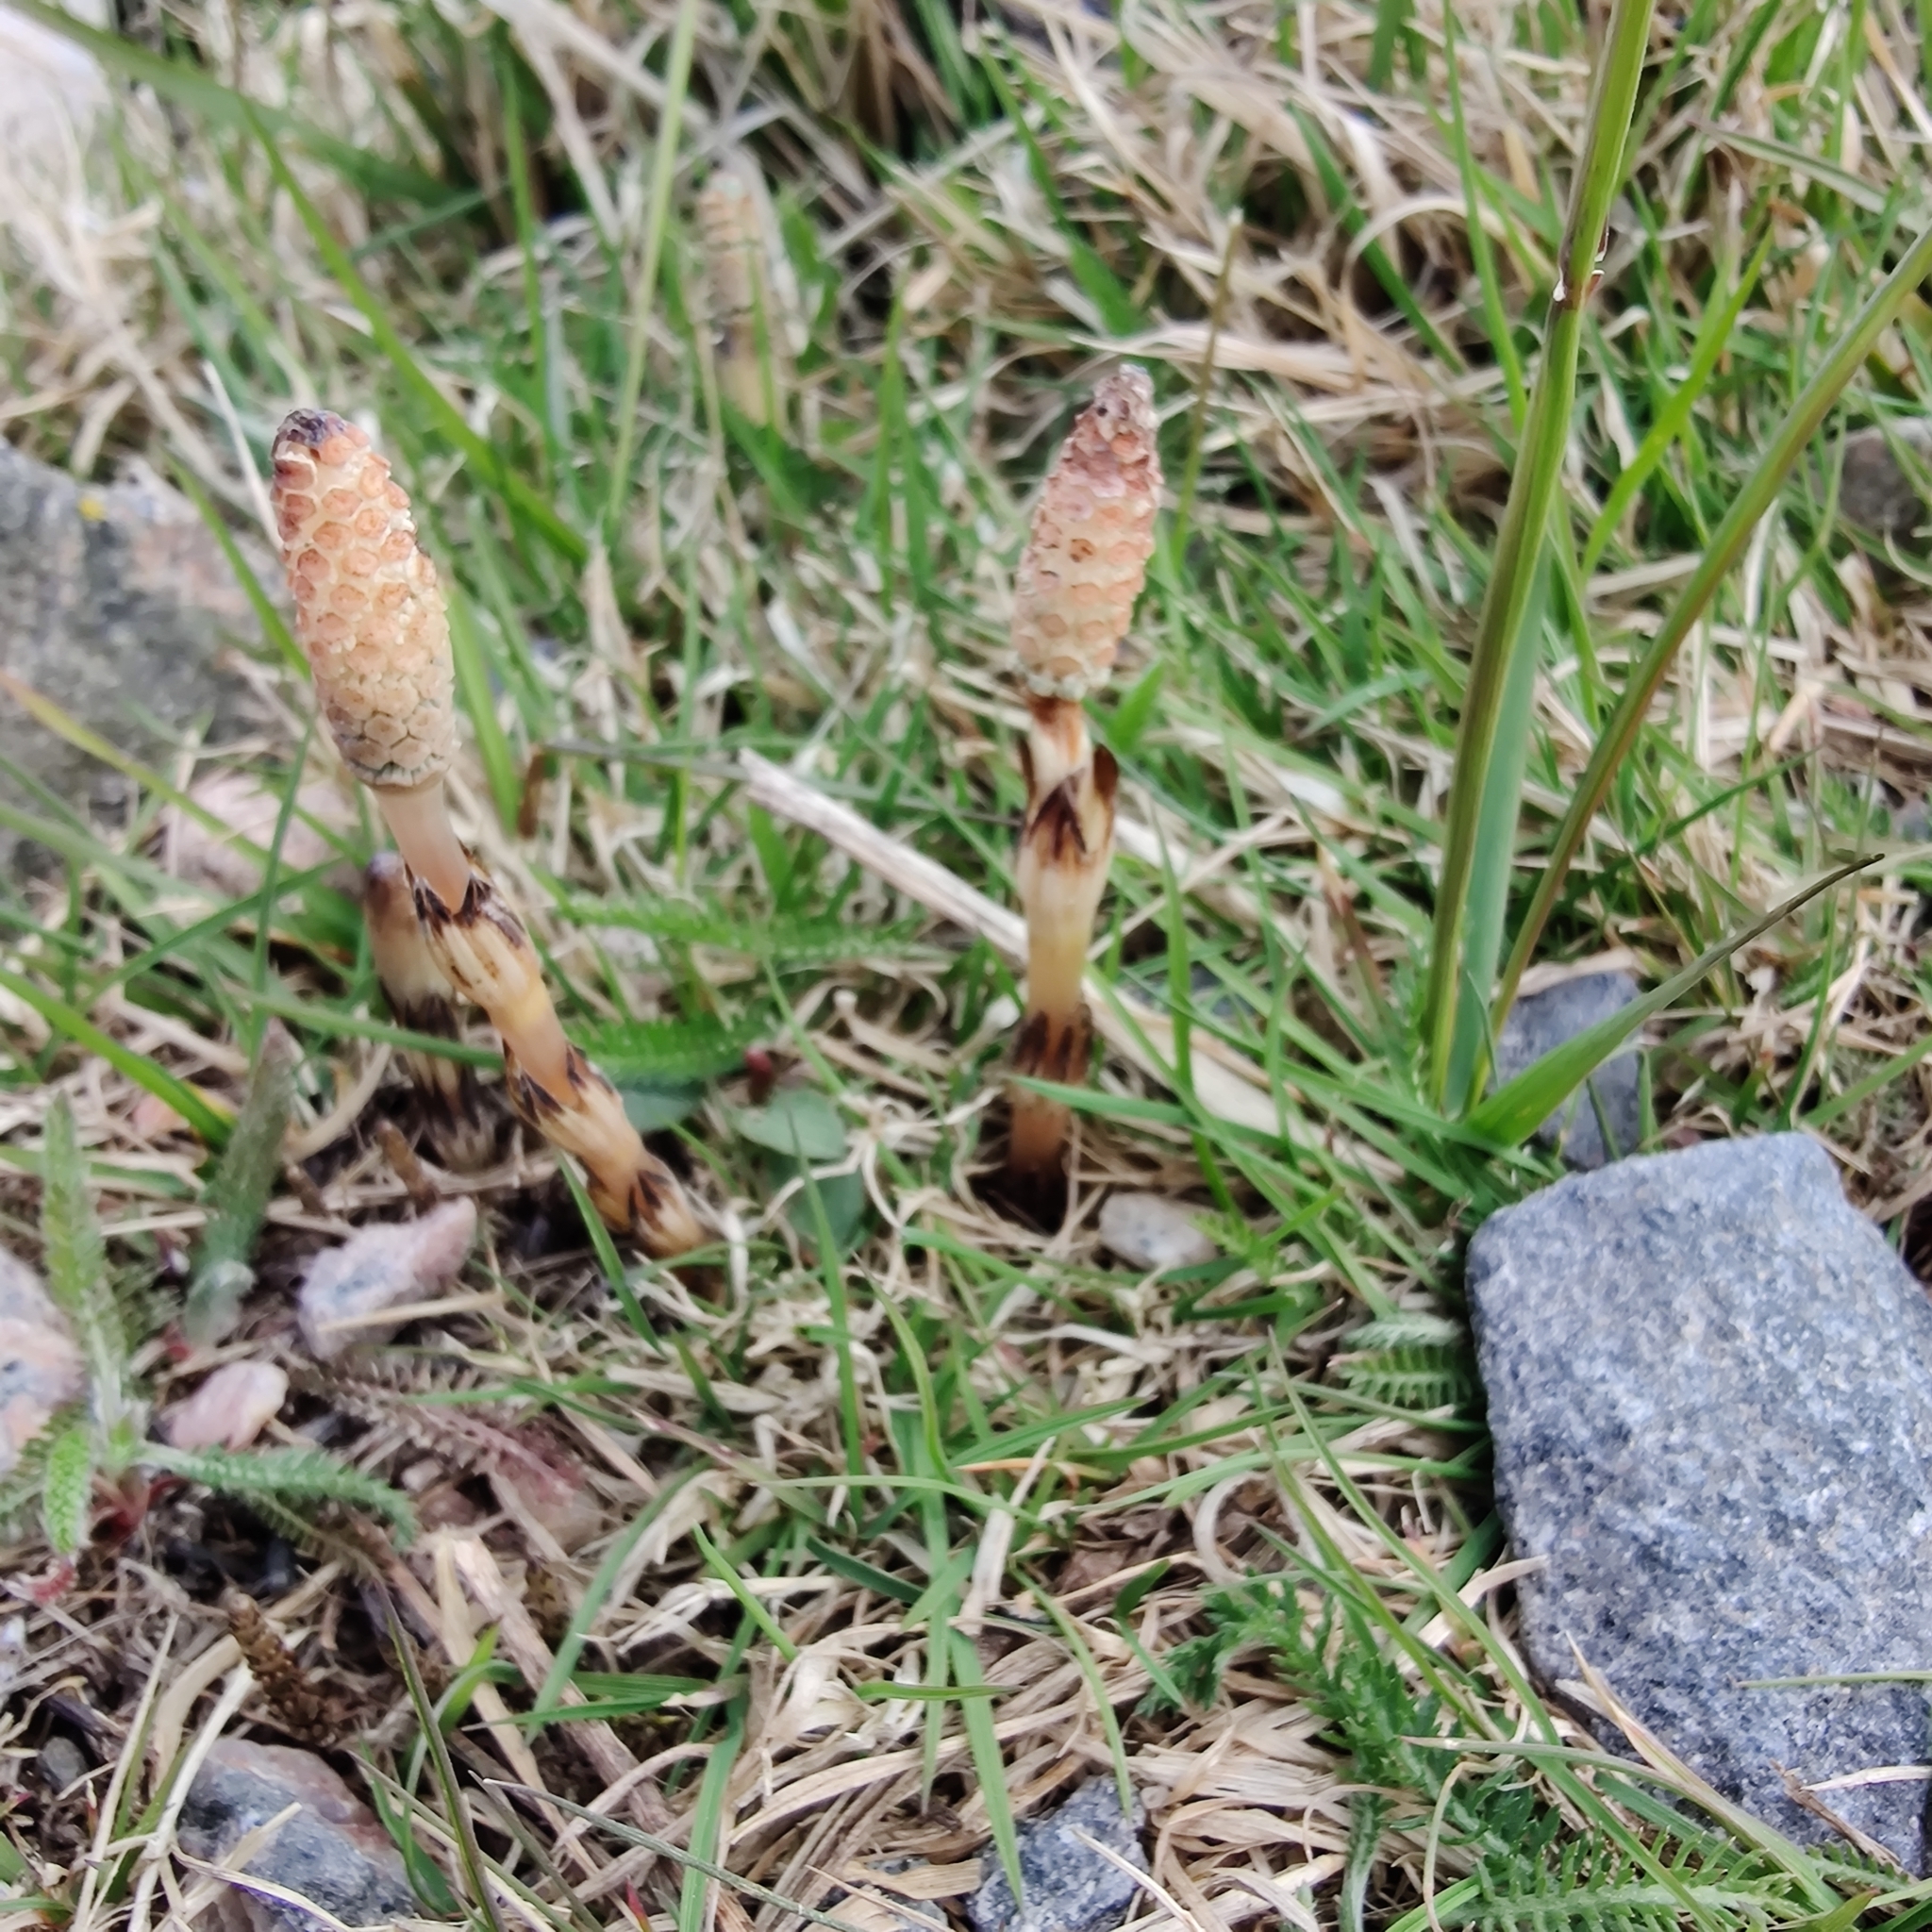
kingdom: Plantae
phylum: Tracheophyta
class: Polypodiopsida
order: Equisetales
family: Equisetaceae
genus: Equisetum
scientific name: Equisetum arvense
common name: Field horsetail
